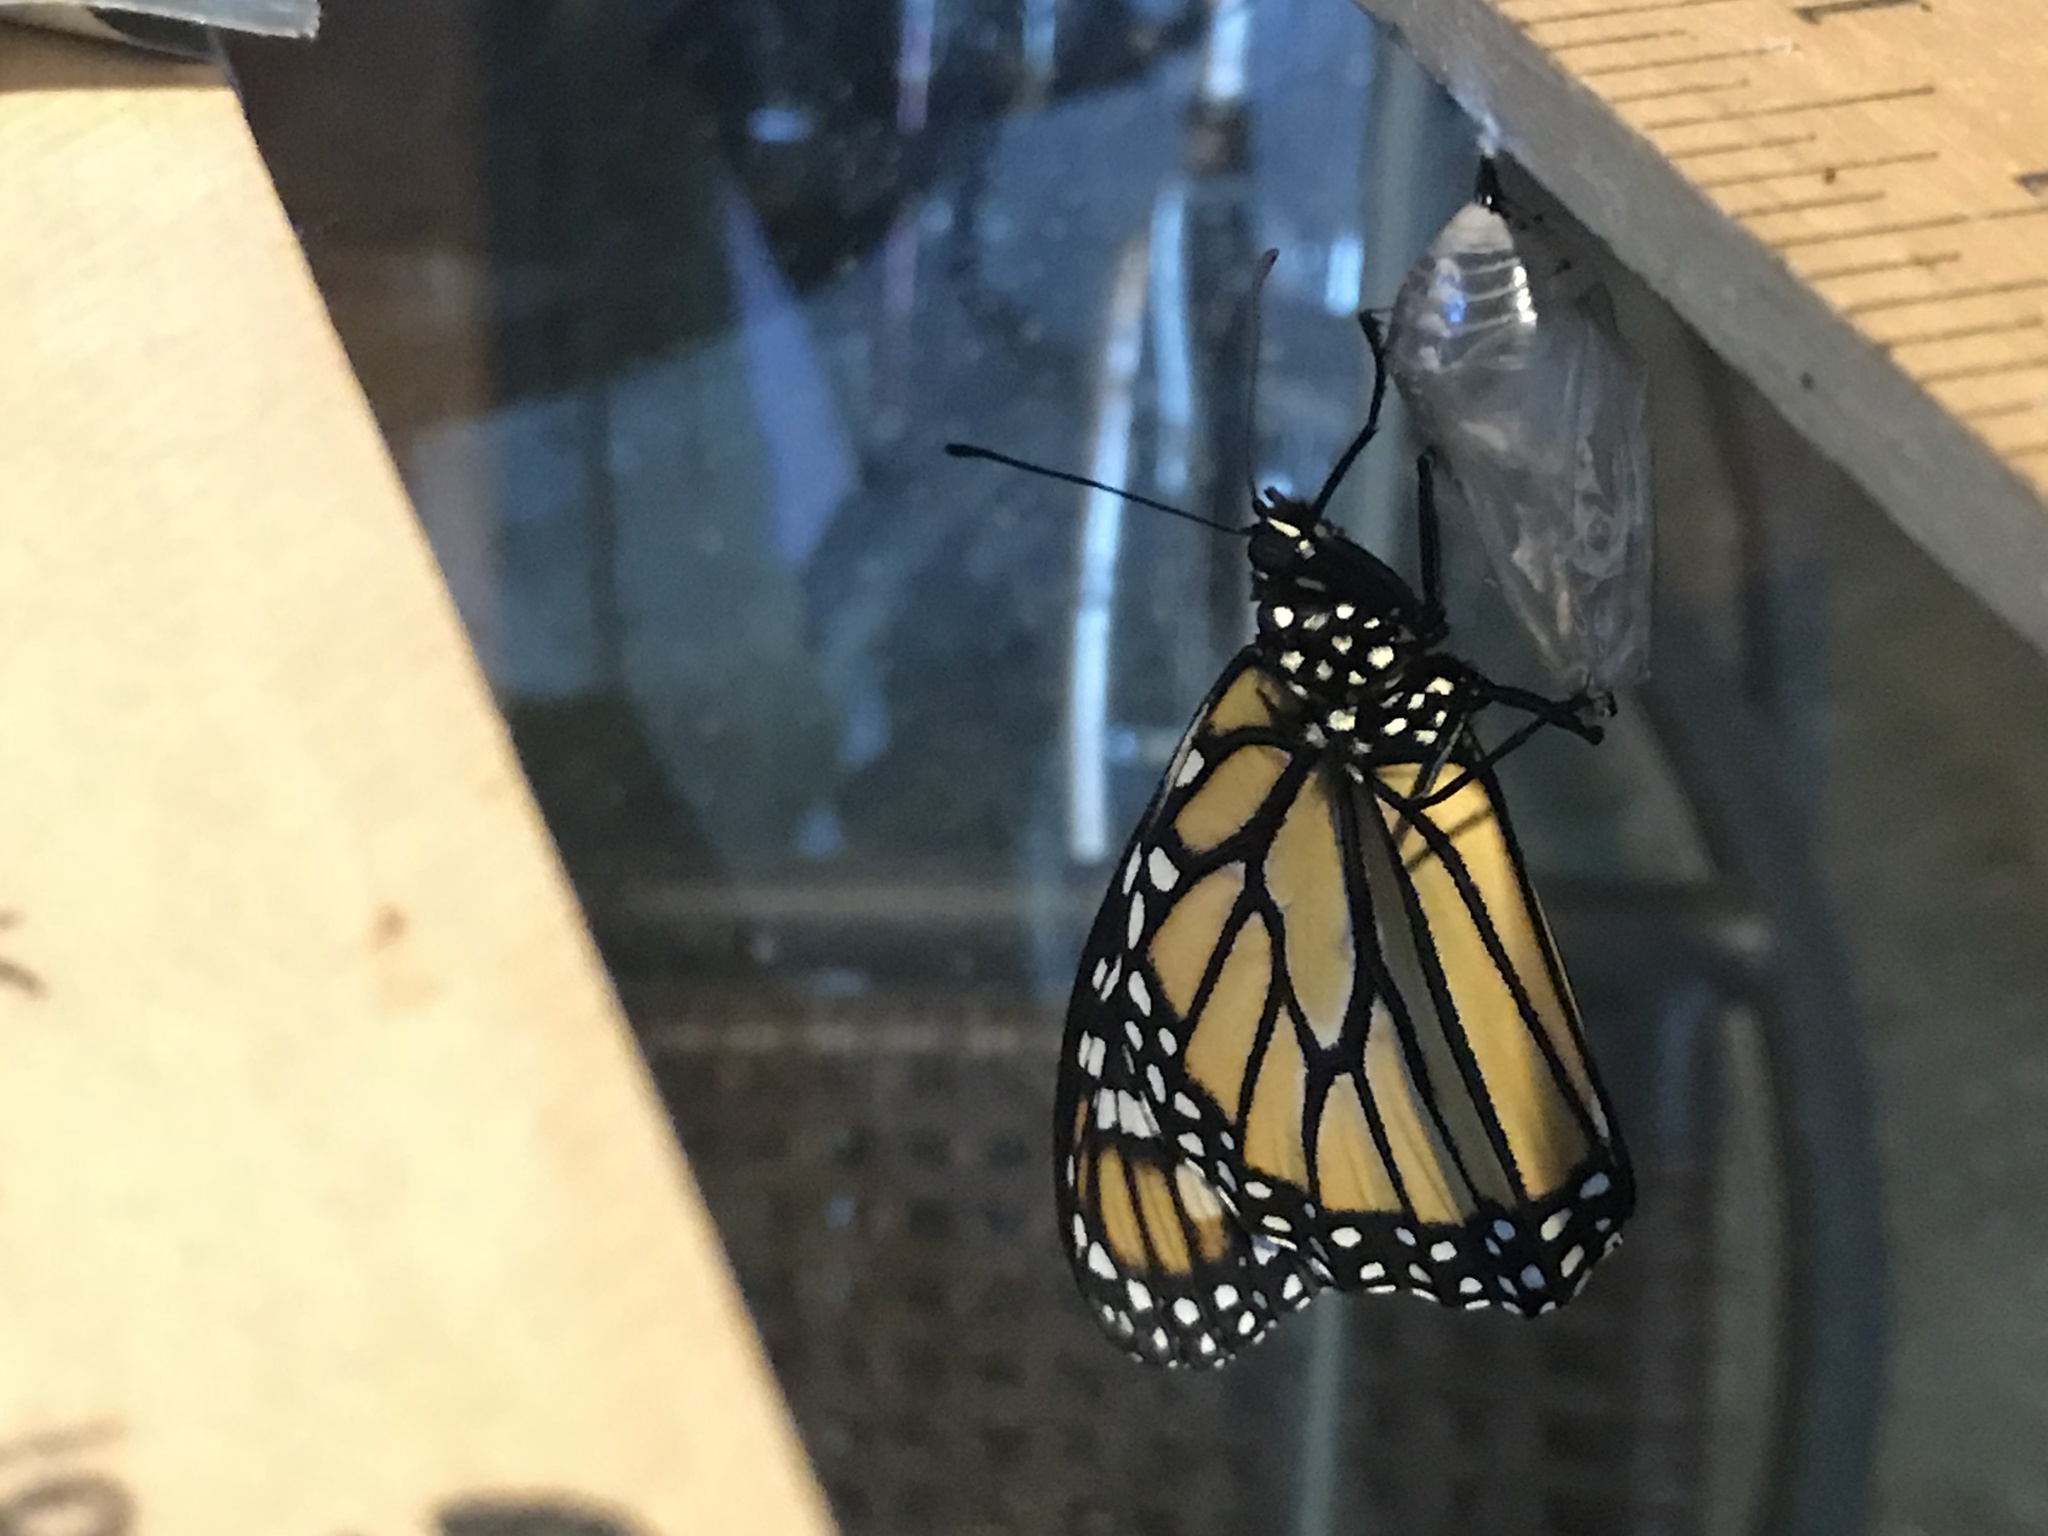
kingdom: Animalia
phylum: Arthropoda
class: Insecta
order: Lepidoptera
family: Nymphalidae
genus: Danaus
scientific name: Danaus plexippus
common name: Monarch
